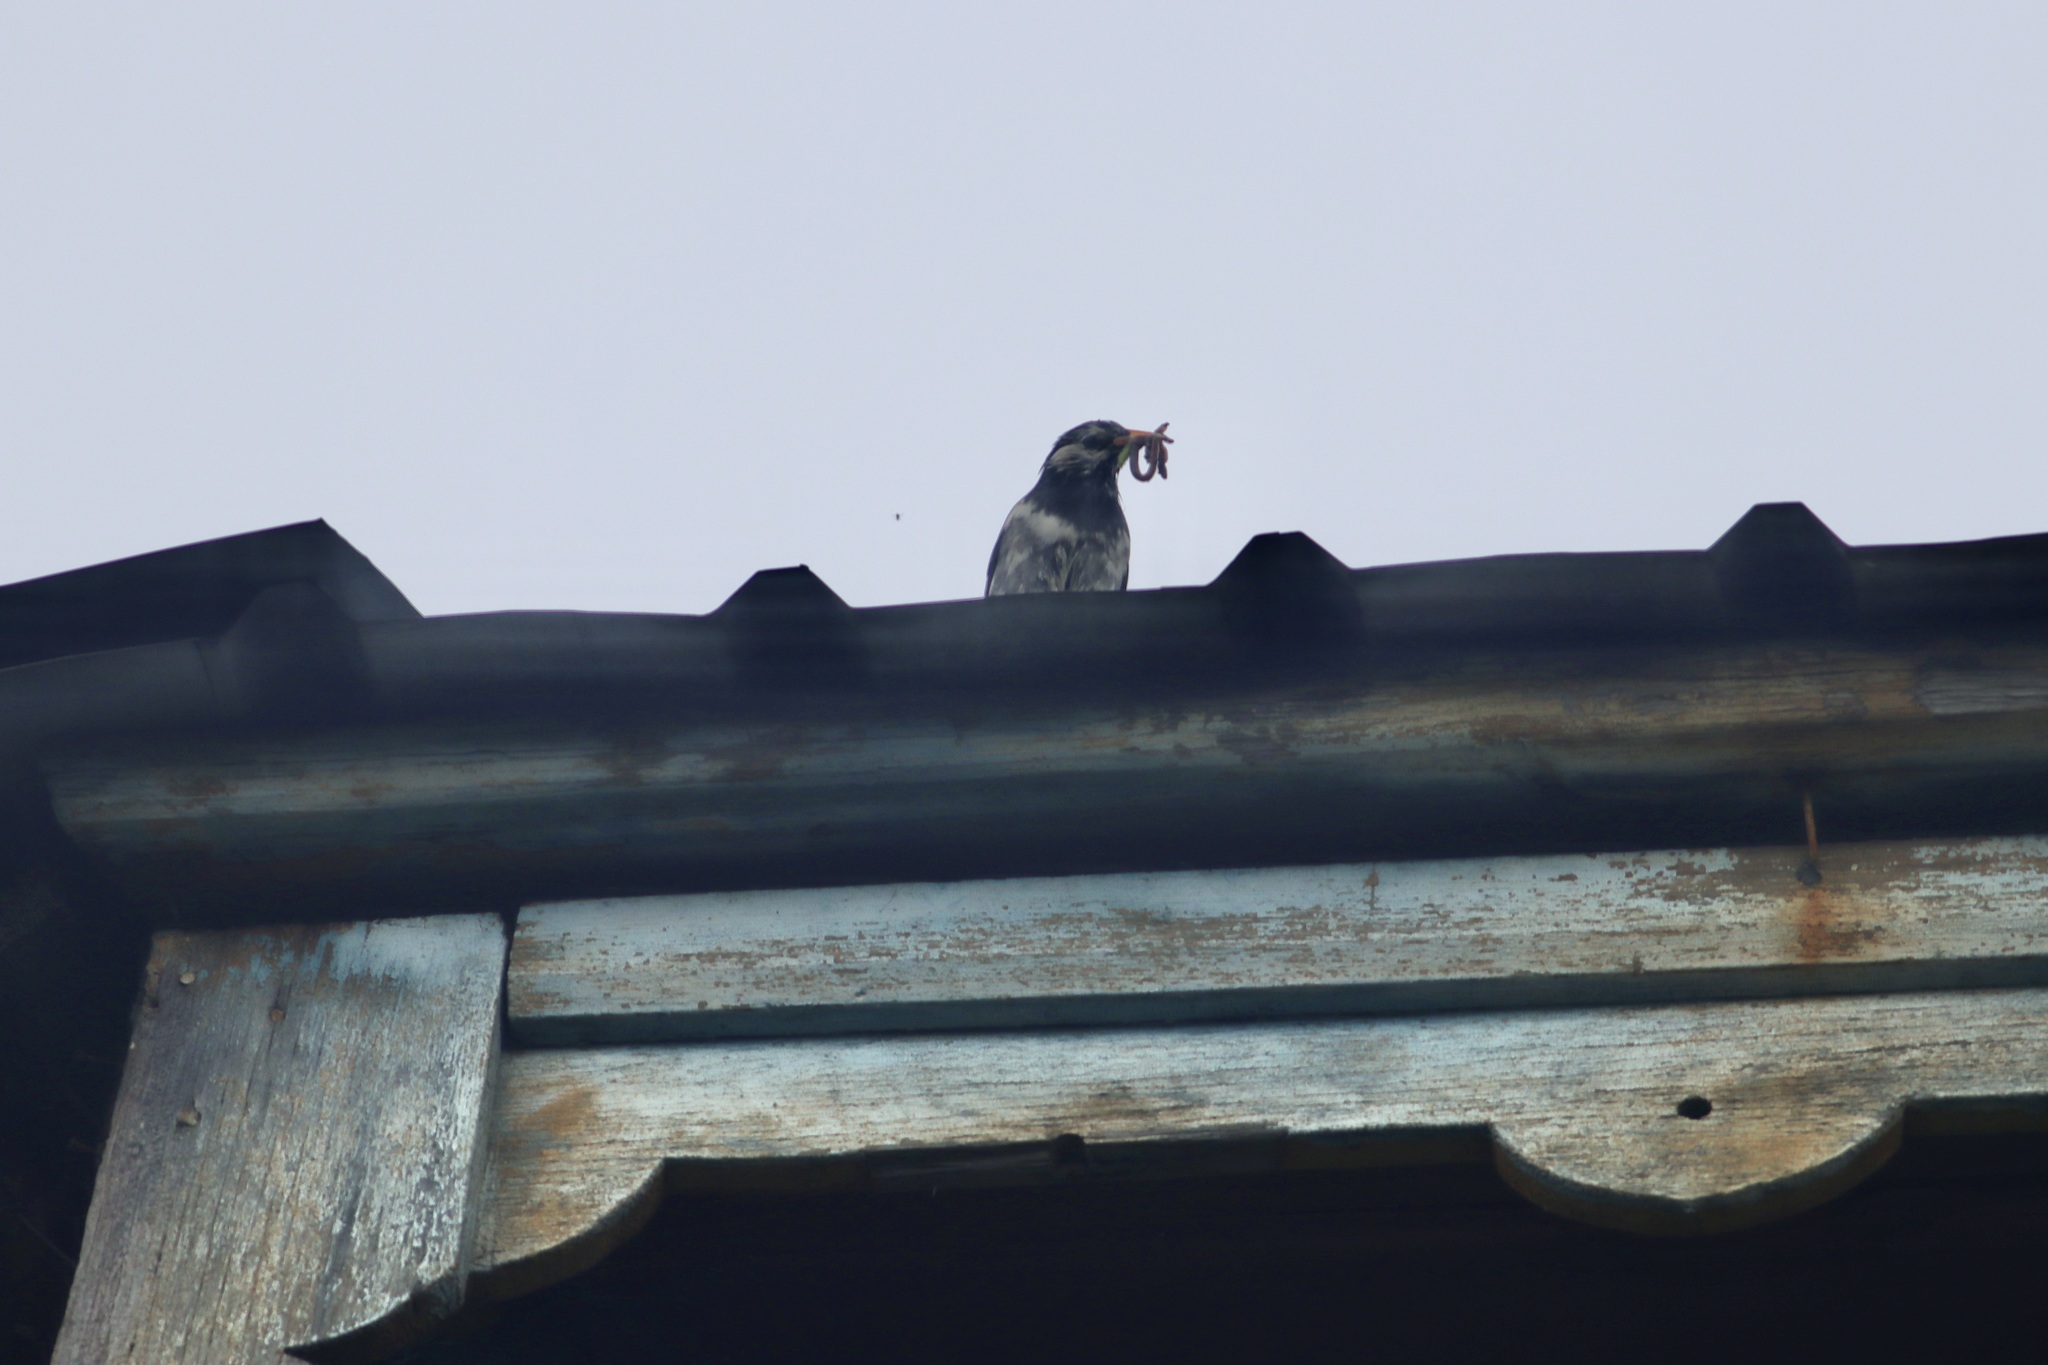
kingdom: Animalia
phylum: Chordata
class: Aves
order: Passeriformes
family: Sturnidae
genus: Spodiopsar
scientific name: Spodiopsar cineraceus
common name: White-cheeked starling
